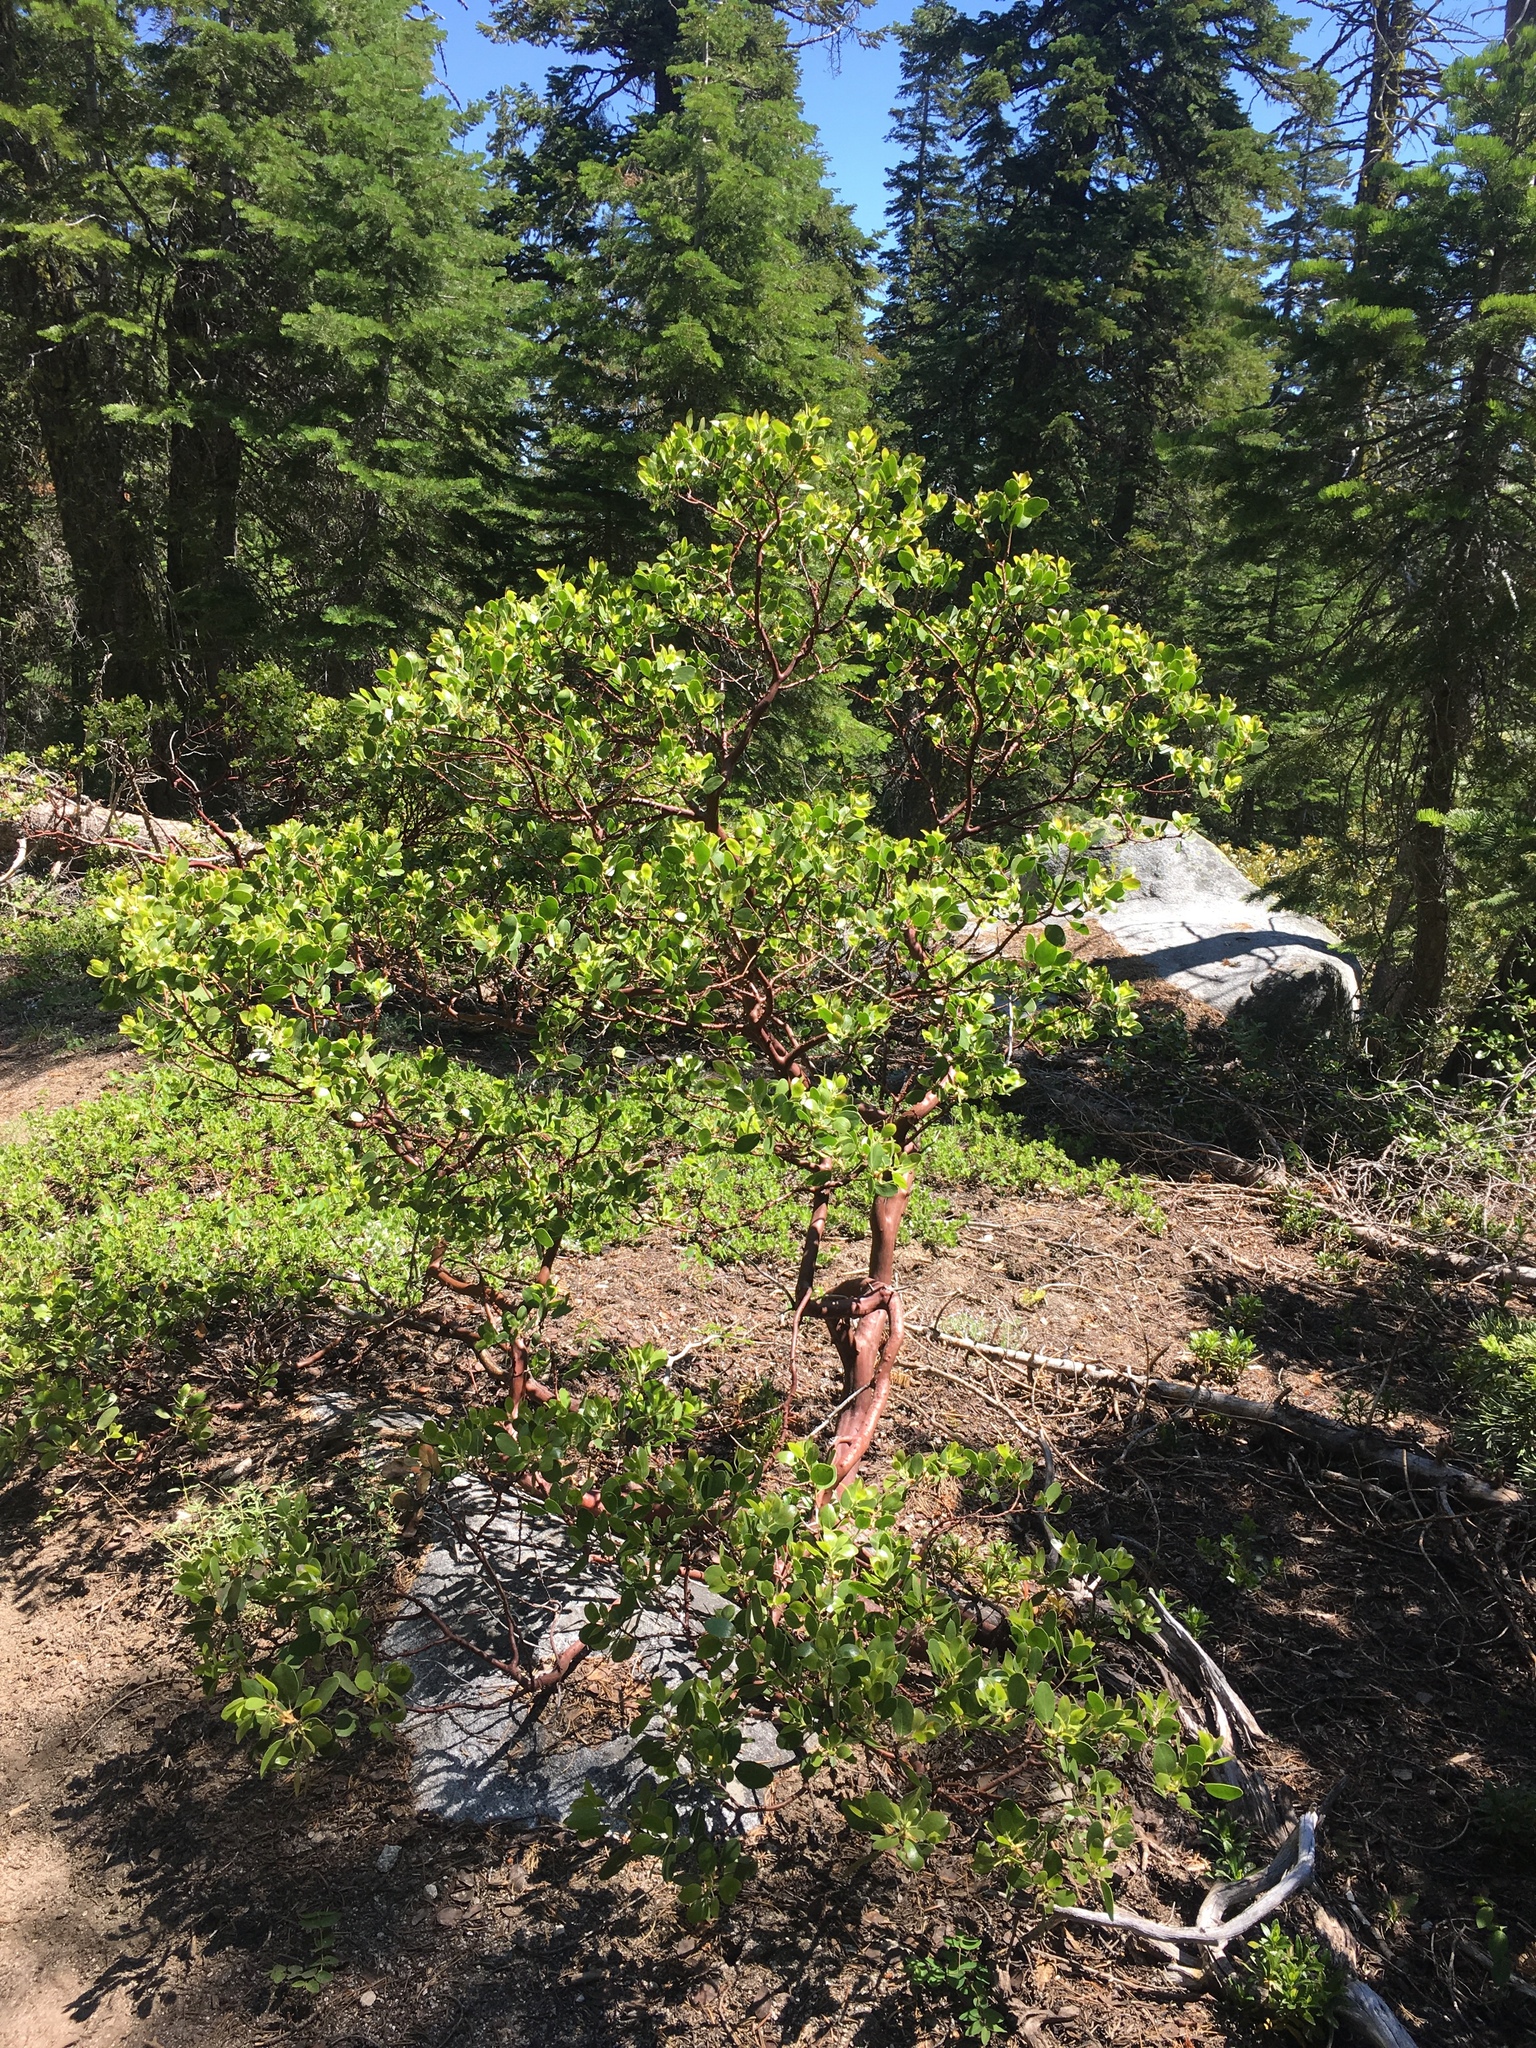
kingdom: Plantae
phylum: Tracheophyta
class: Magnoliopsida
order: Ericales
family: Ericaceae
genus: Arctostaphylos
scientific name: Arctostaphylos patula
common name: Green-leaf manzanita
